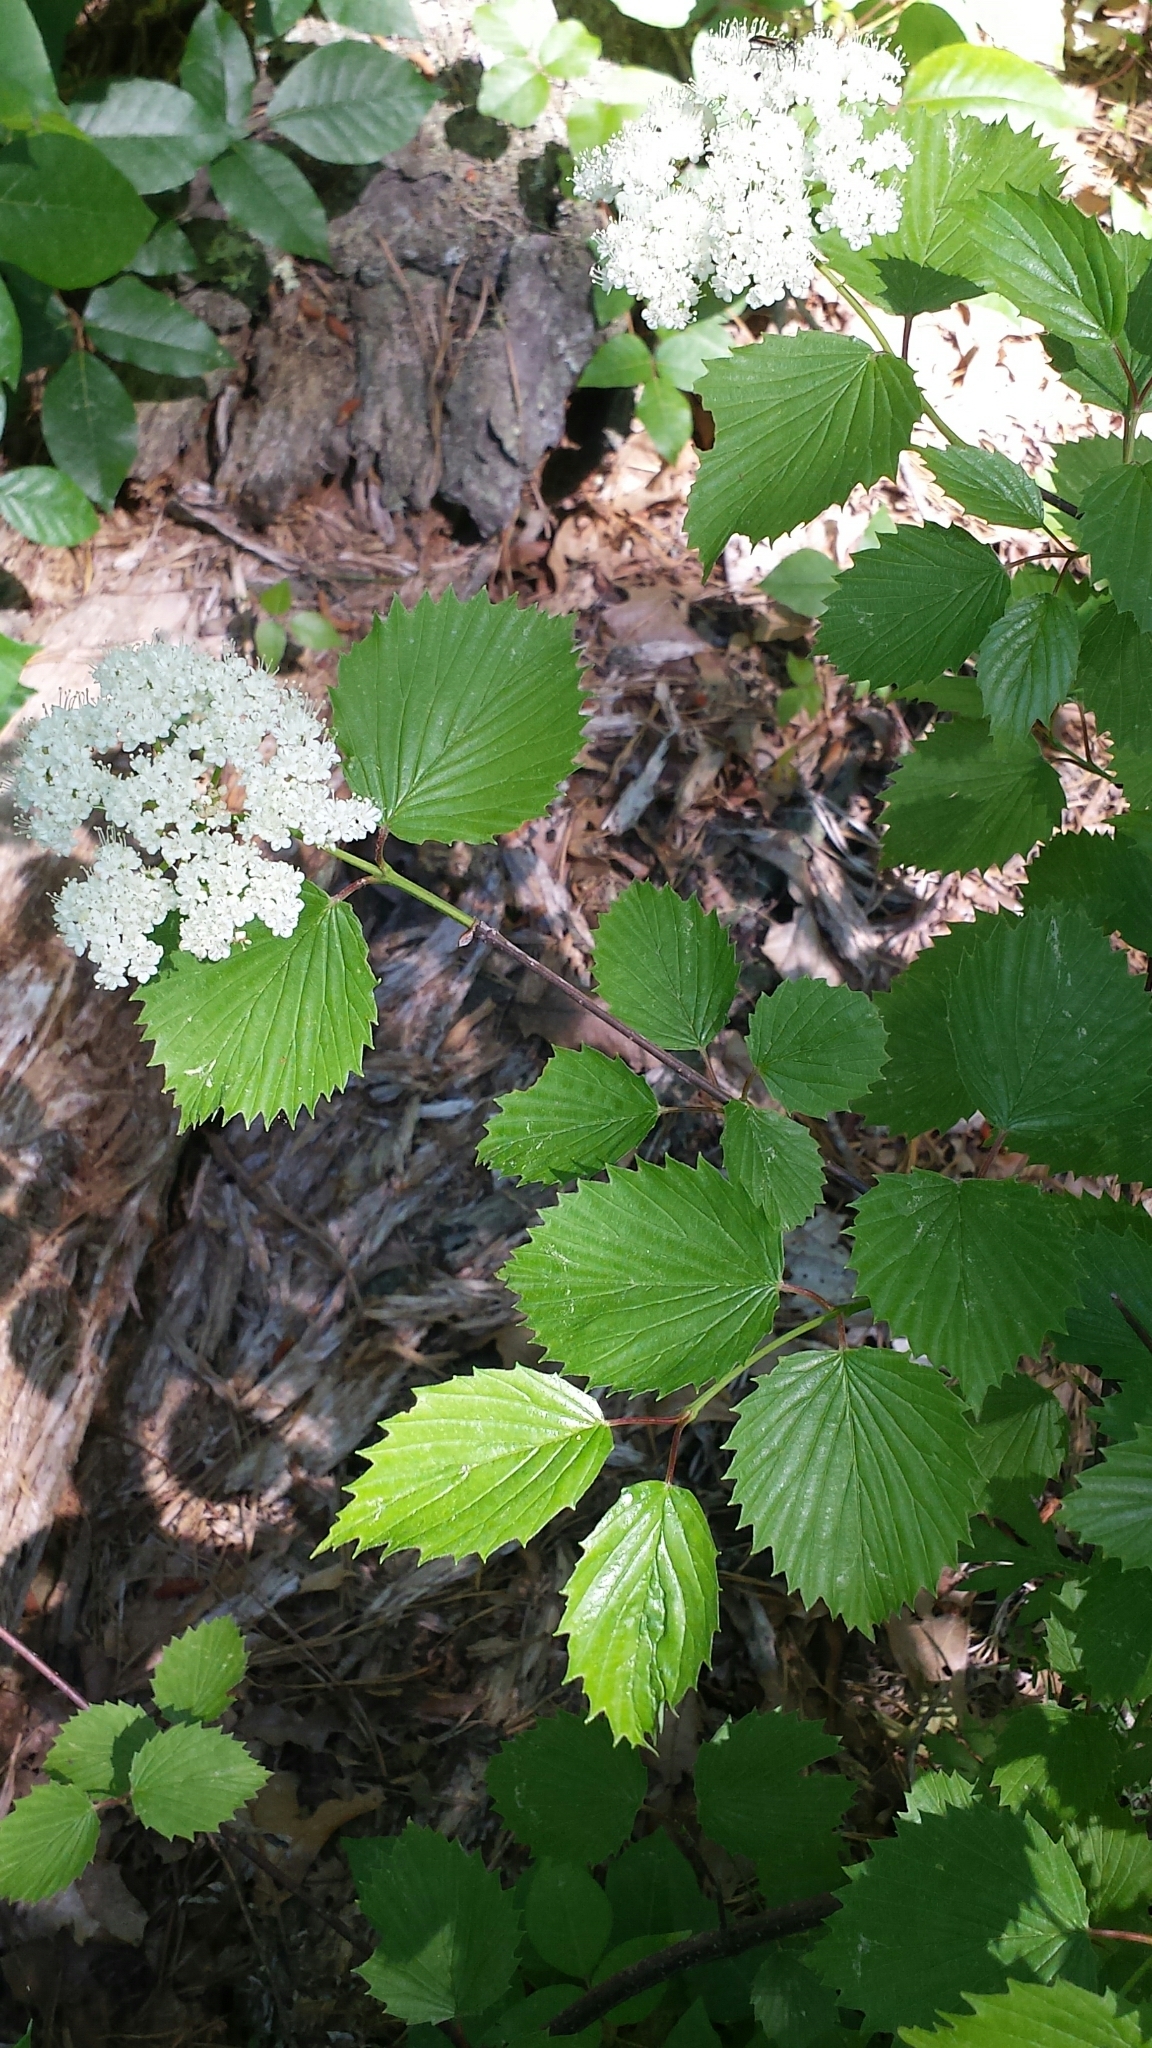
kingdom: Plantae
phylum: Tracheophyta
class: Magnoliopsida
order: Dipsacales
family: Viburnaceae
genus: Viburnum
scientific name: Viburnum dentatum
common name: Arrow-wood
